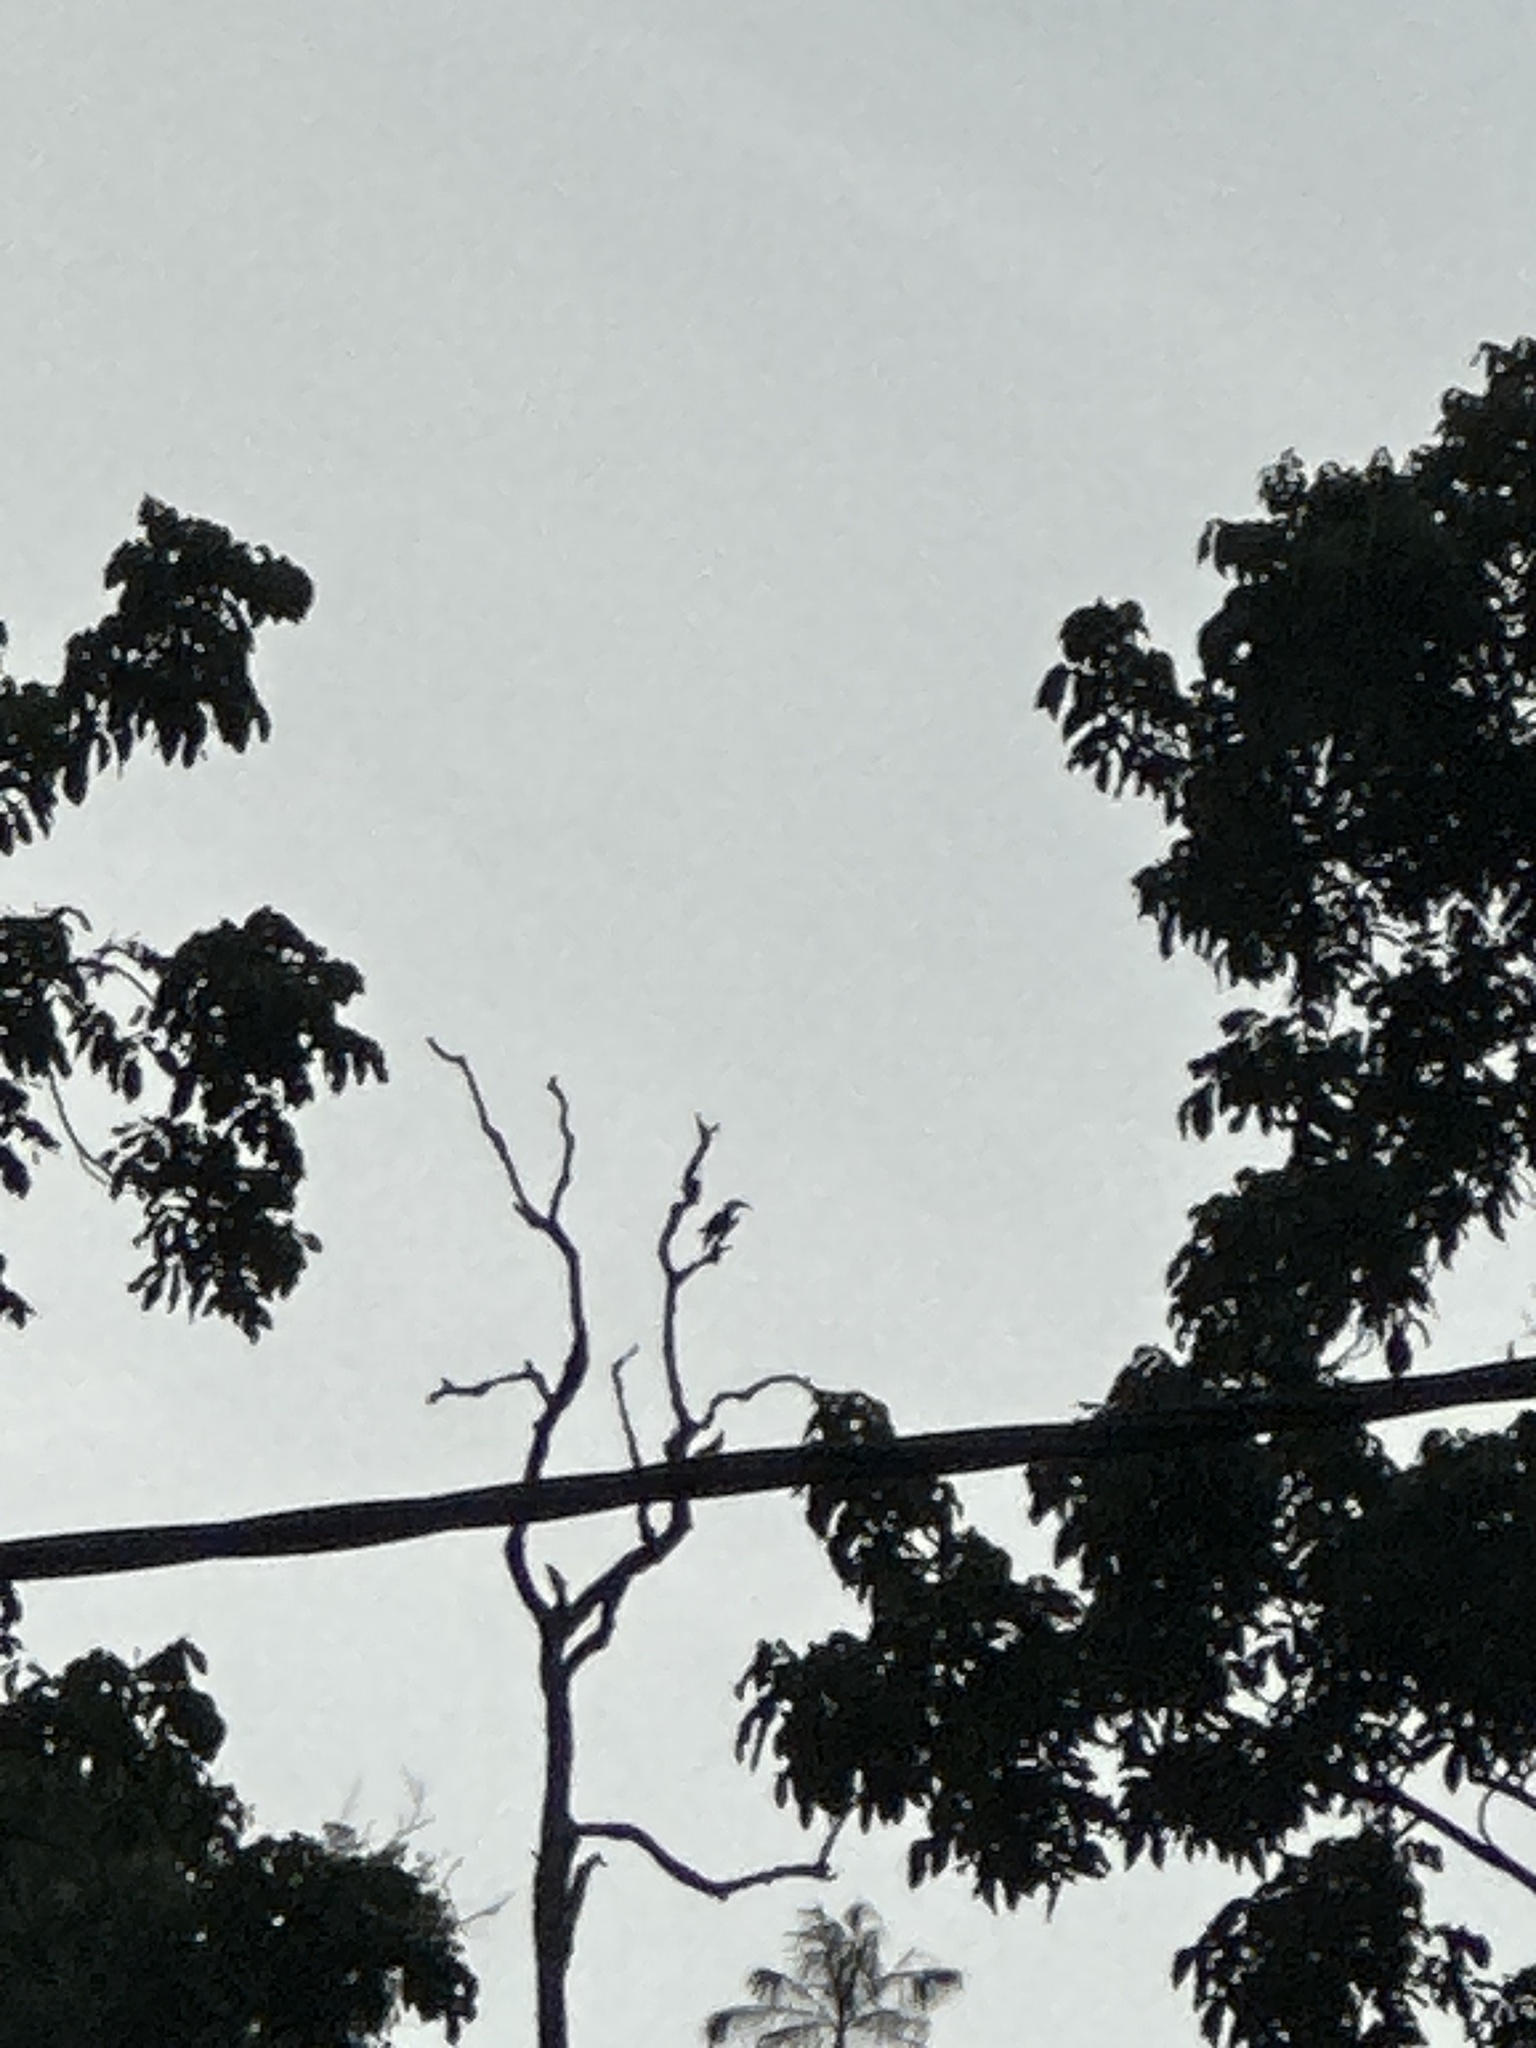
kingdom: Animalia
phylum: Chordata
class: Aves
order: Bucerotiformes
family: Bucerotidae
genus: Rhyticeros
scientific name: Rhyticeros plicatus
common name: Blyth's hornbill
